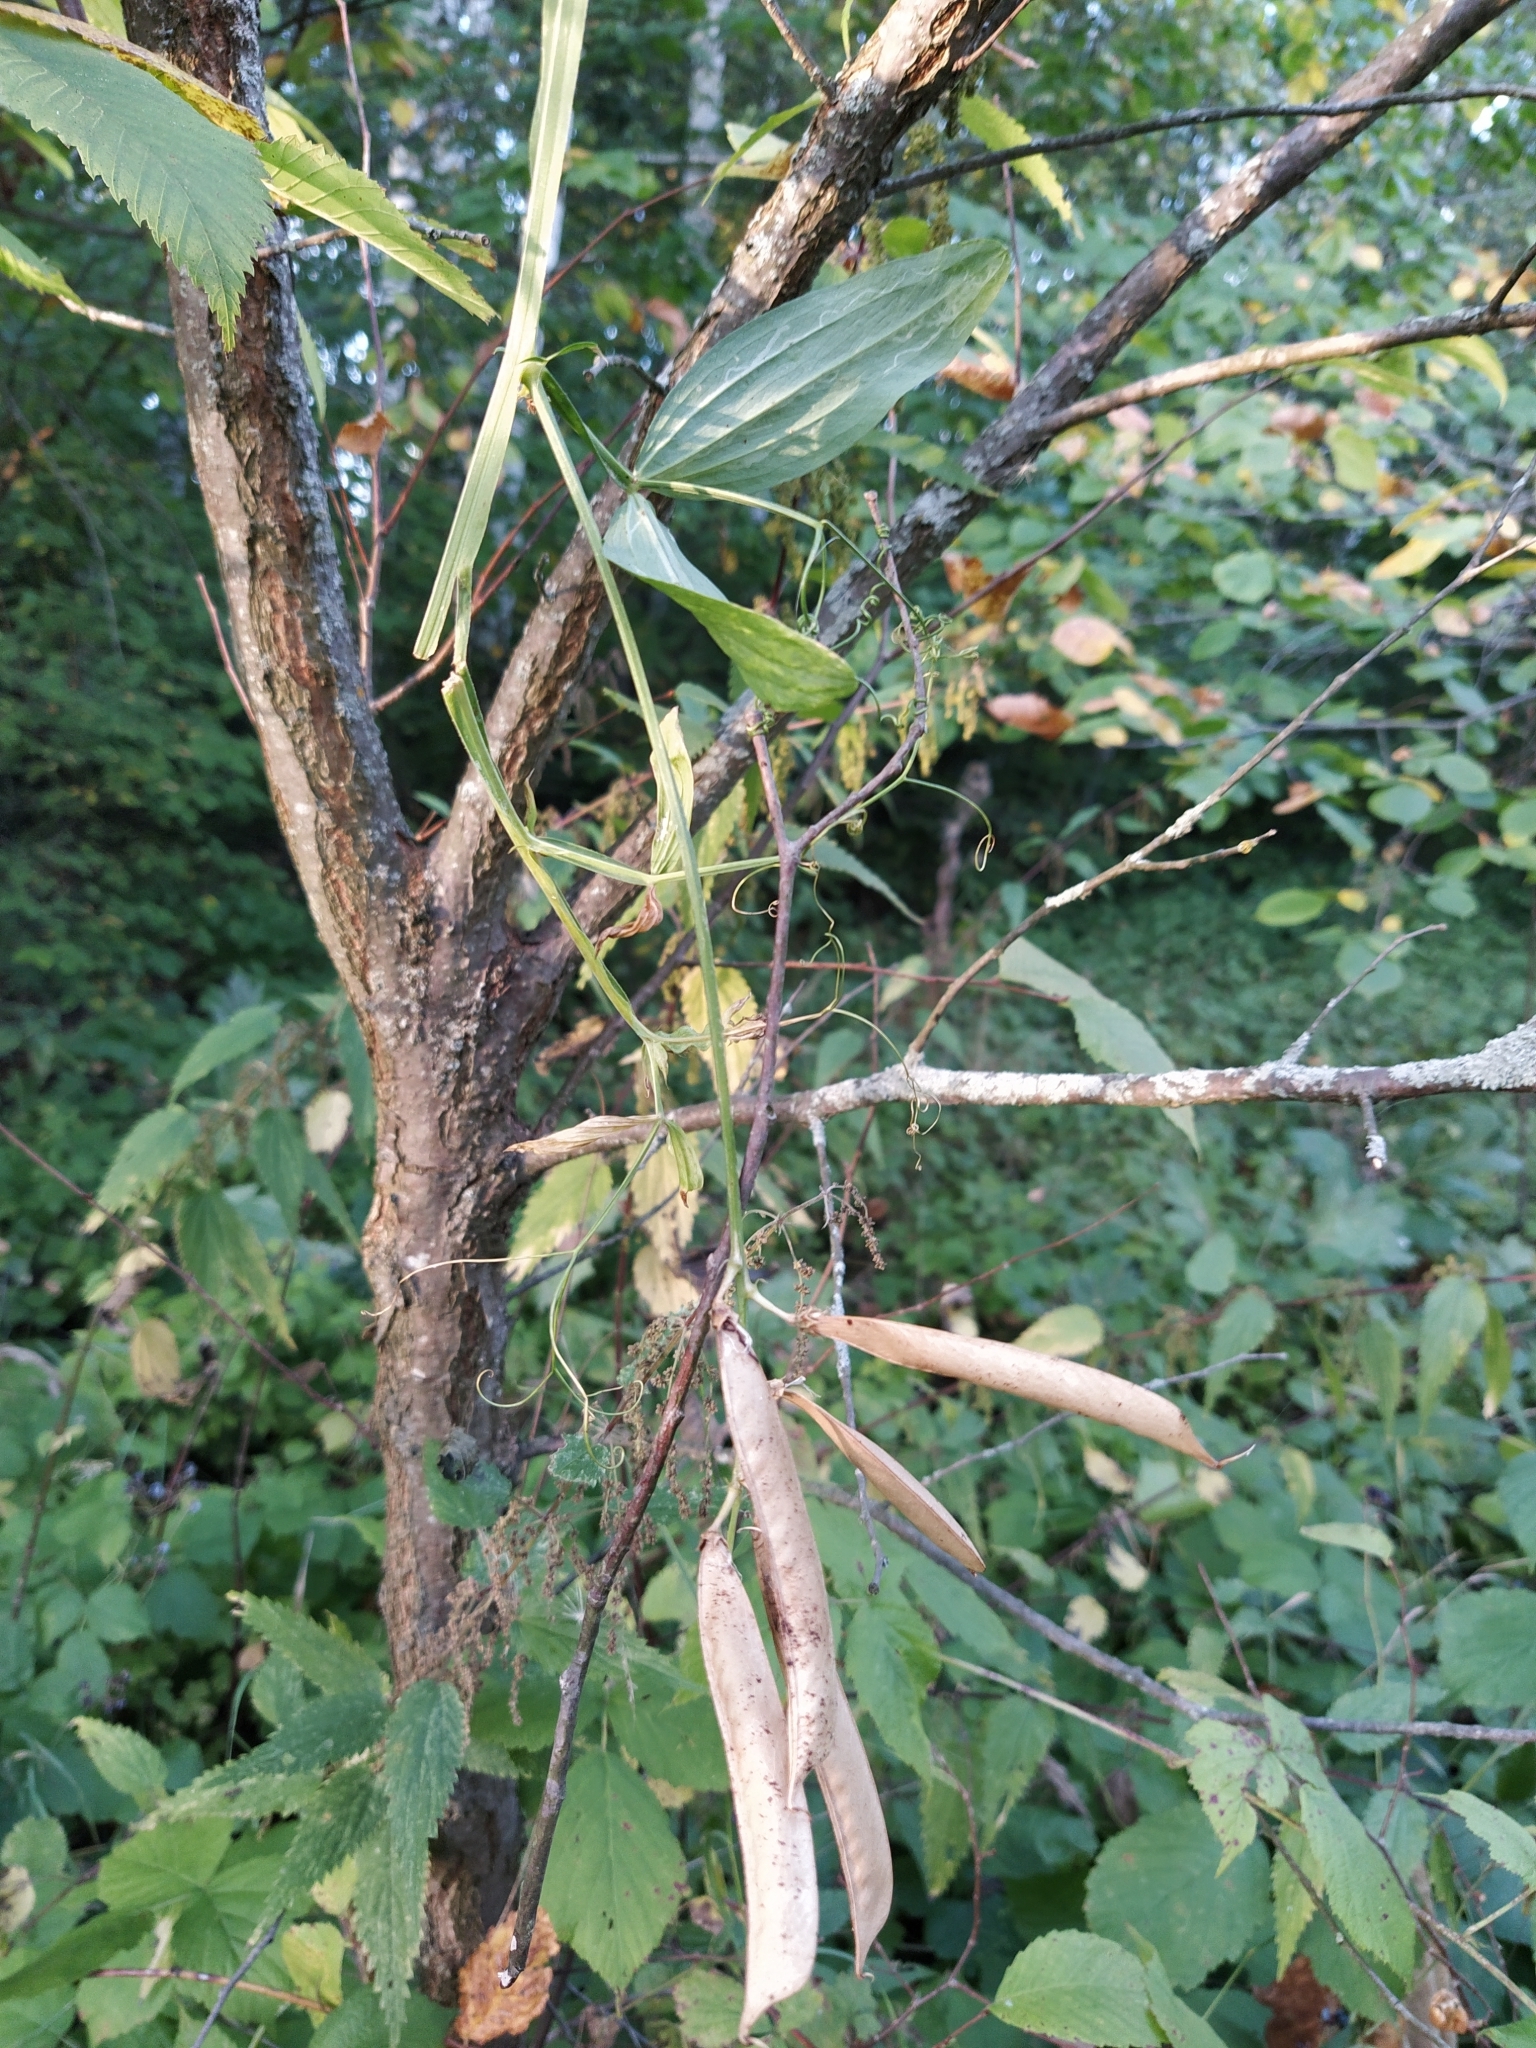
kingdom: Plantae
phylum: Tracheophyta
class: Magnoliopsida
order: Fabales
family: Fabaceae
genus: Lathyrus
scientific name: Lathyrus sylvestris
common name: Flat pea
